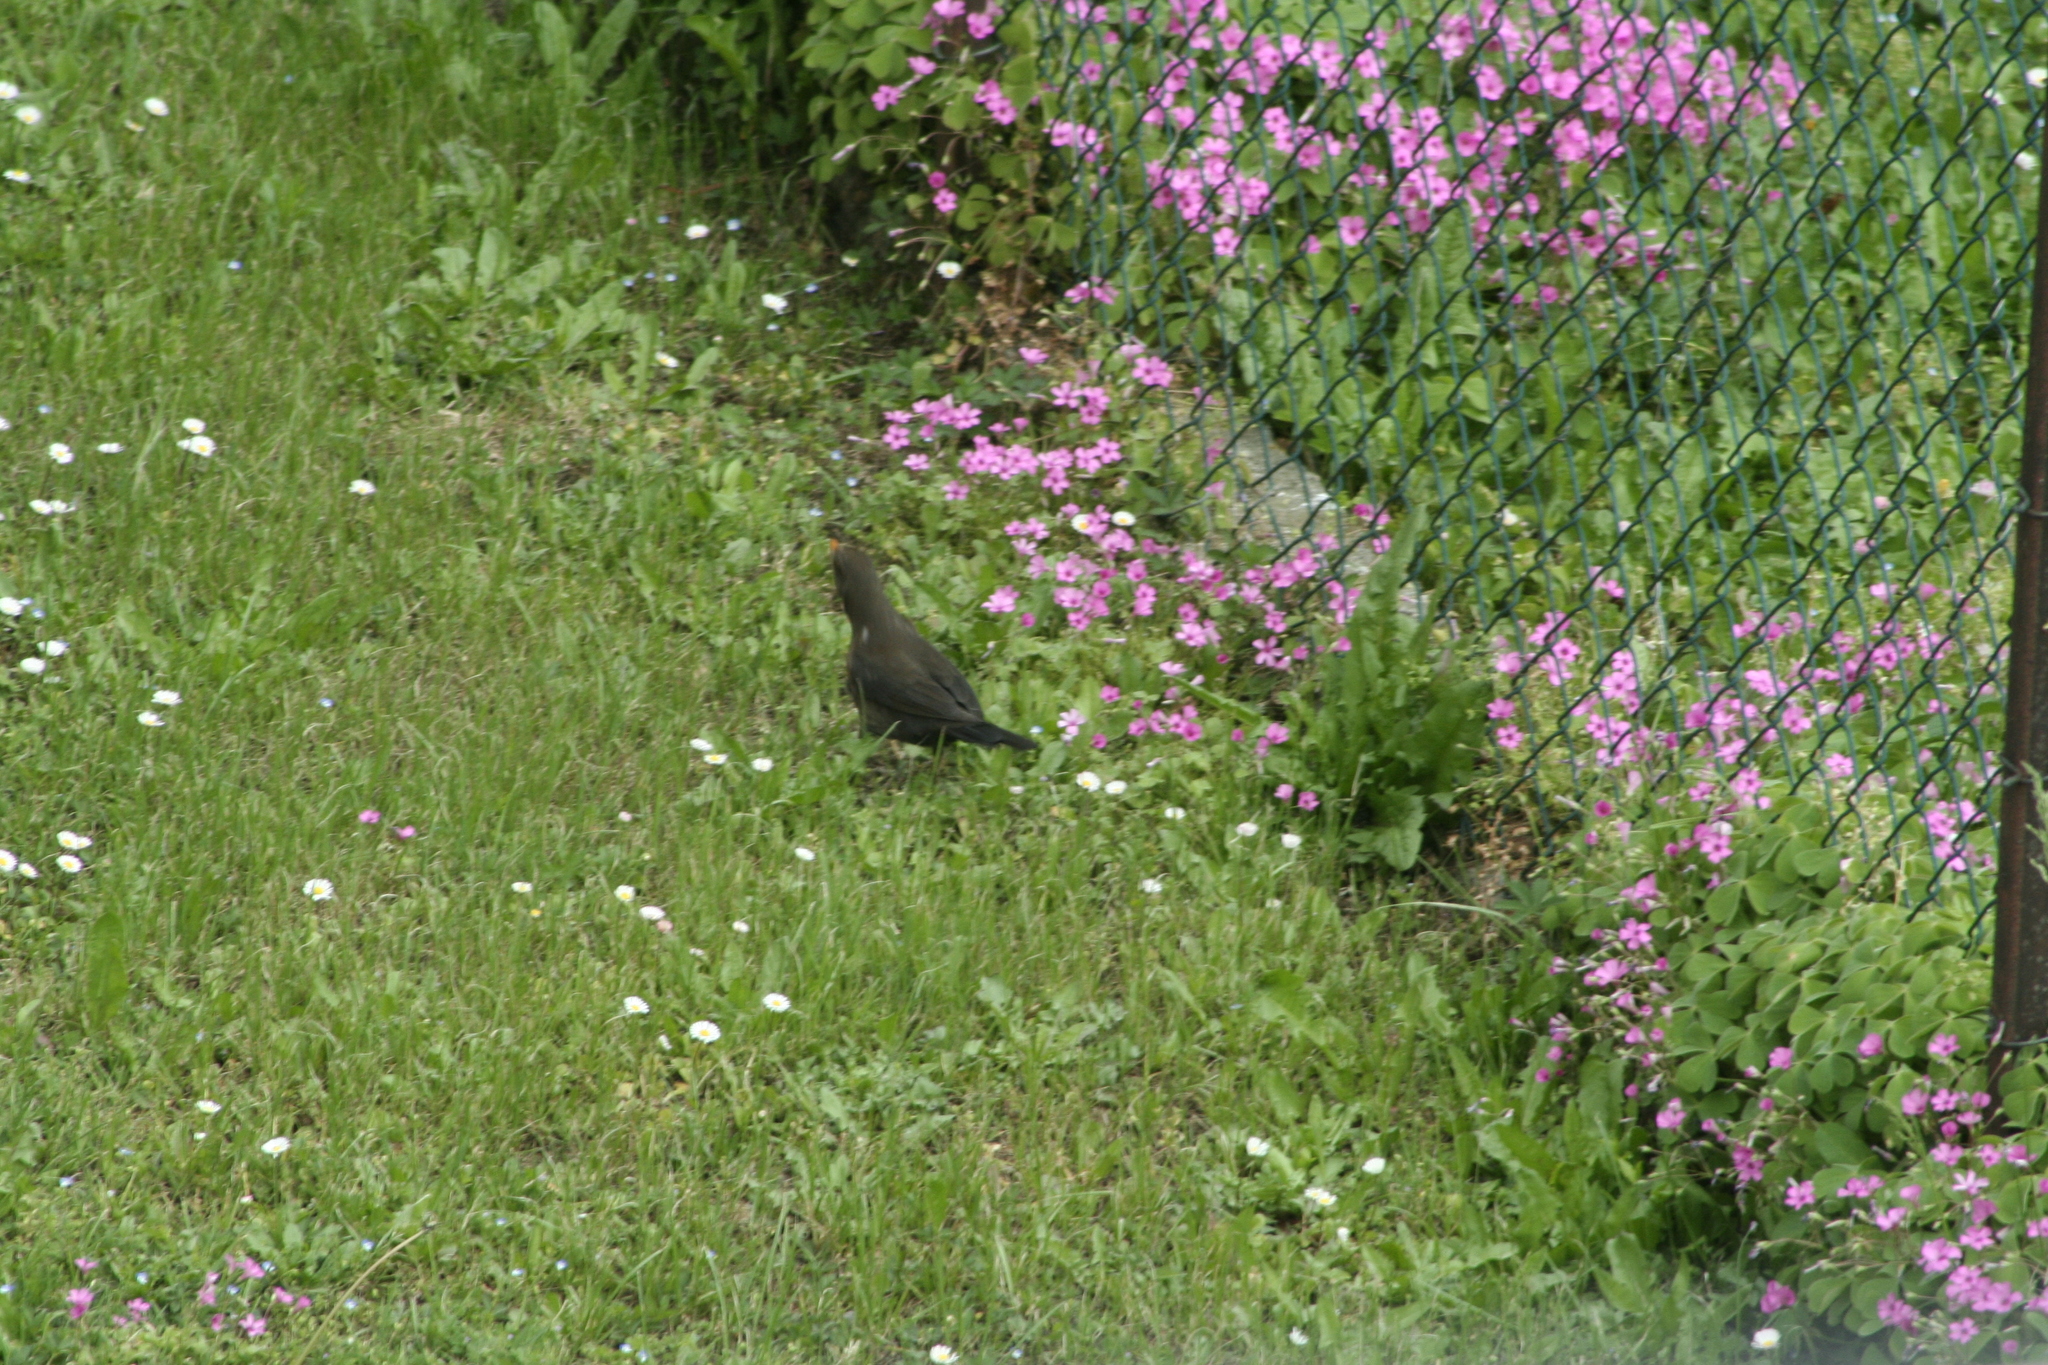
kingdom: Animalia
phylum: Chordata
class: Aves
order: Passeriformes
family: Turdidae
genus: Turdus
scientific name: Turdus merula
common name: Common blackbird
